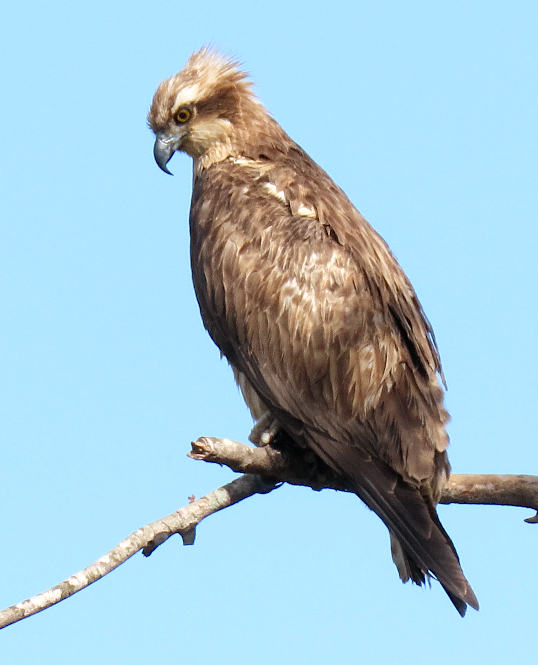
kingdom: Animalia
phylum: Chordata
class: Aves
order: Accipitriformes
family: Pandionidae
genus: Pandion
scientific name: Pandion haliaetus
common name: Osprey
